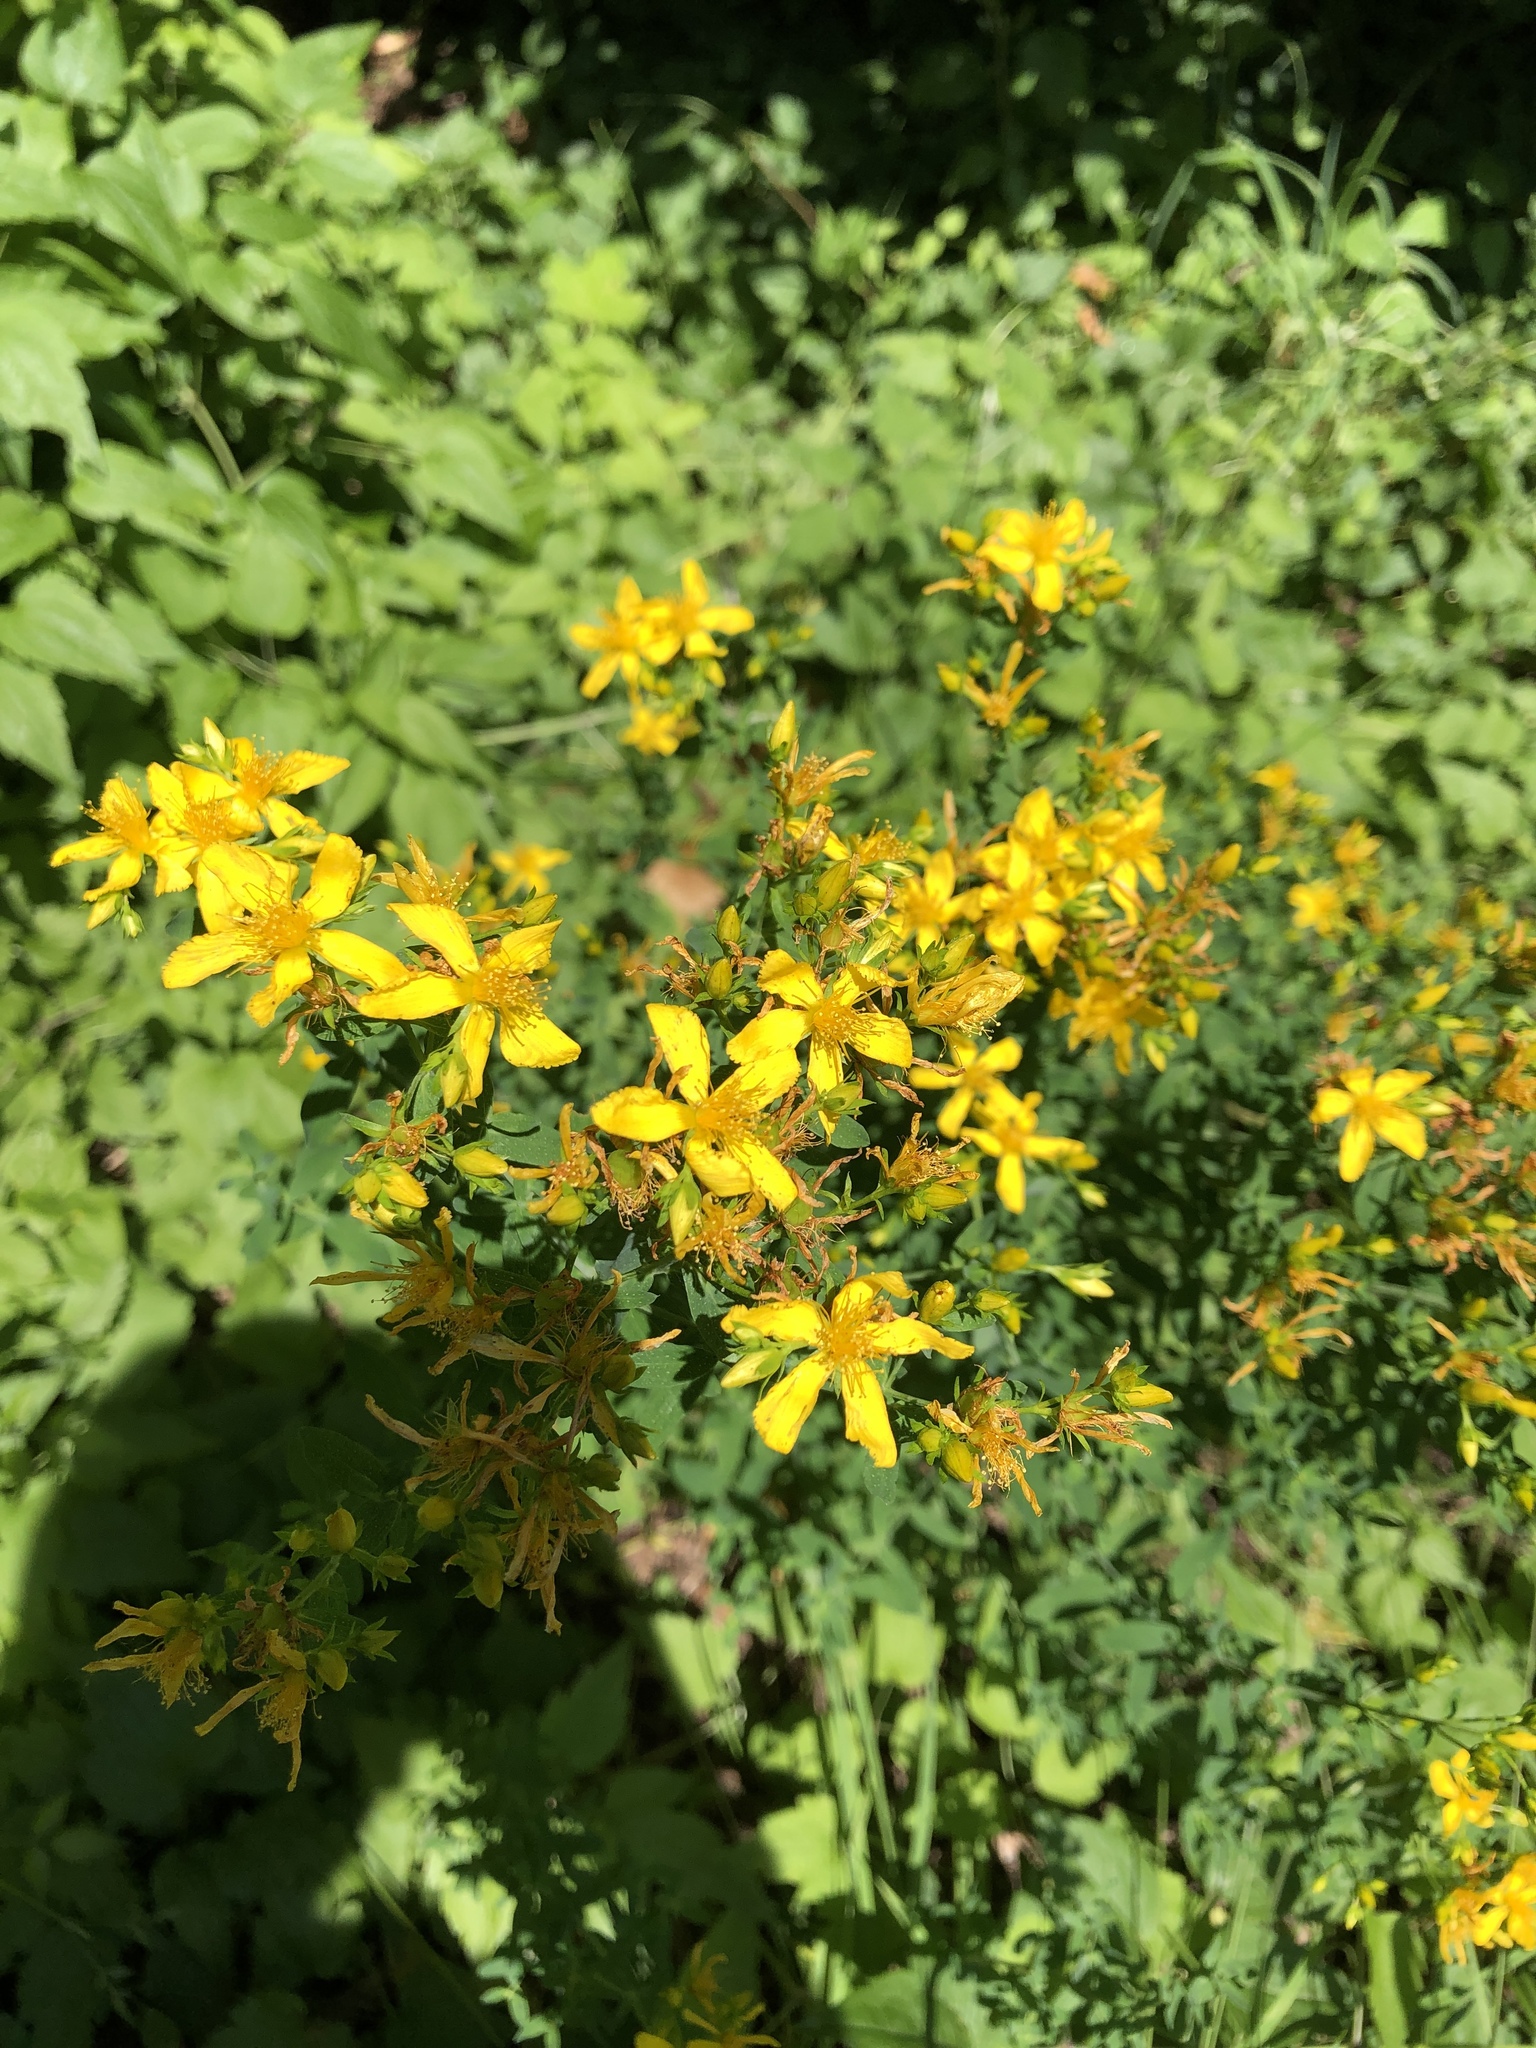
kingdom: Plantae
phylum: Tracheophyta
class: Magnoliopsida
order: Malpighiales
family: Hypericaceae
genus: Hypericum
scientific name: Hypericum perforatum
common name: Common st. johnswort
